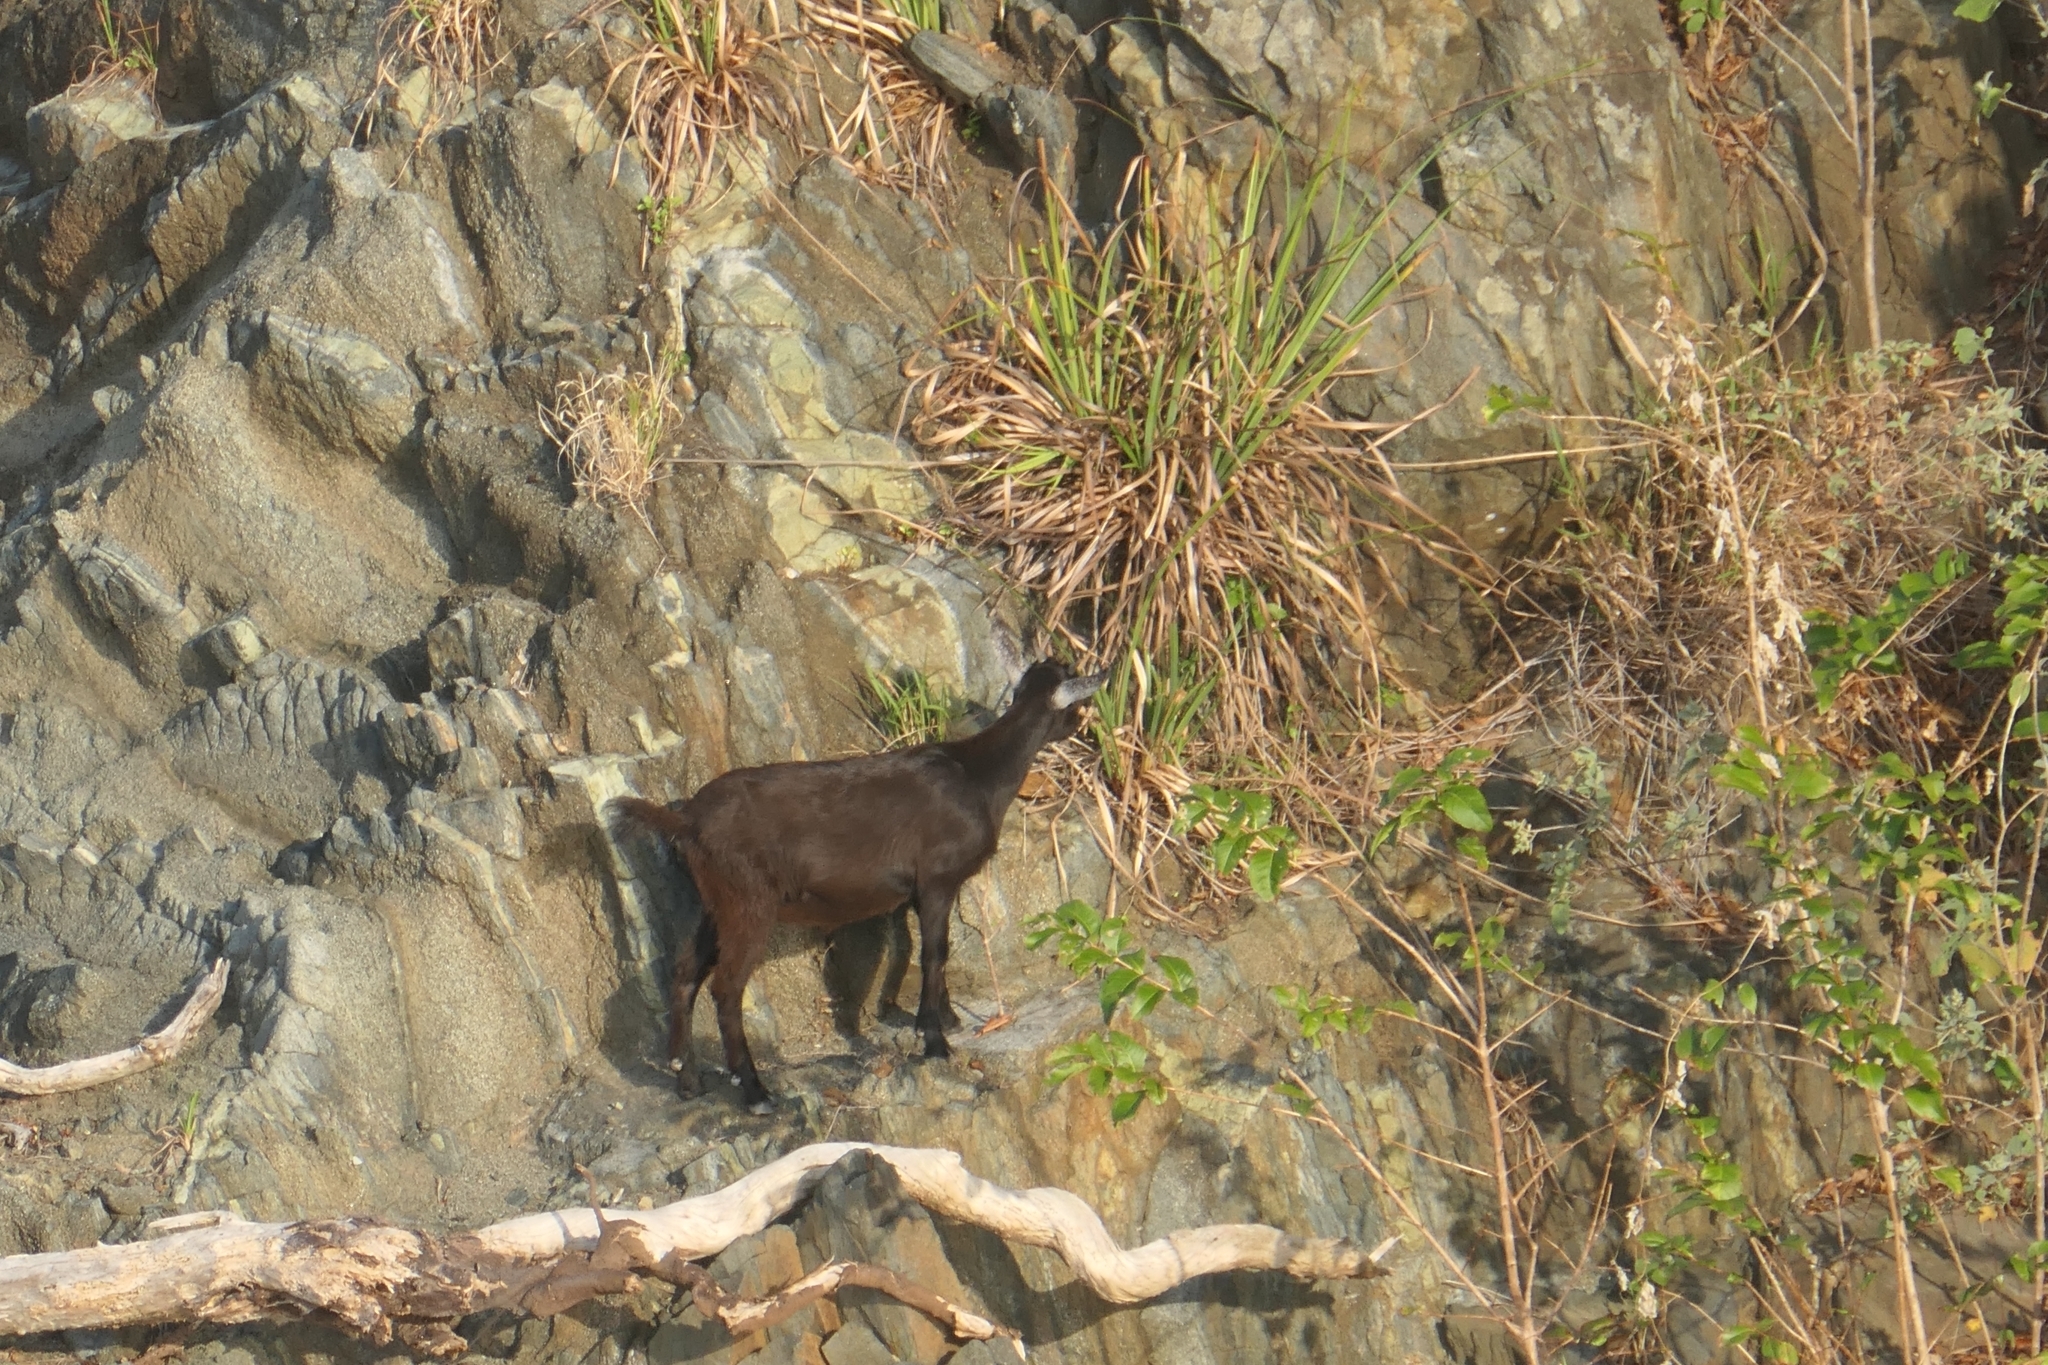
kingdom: Animalia
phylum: Chordata
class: Mammalia
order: Artiodactyla
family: Bovidae
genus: Capra
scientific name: Capra hircus
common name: Domestic goat
